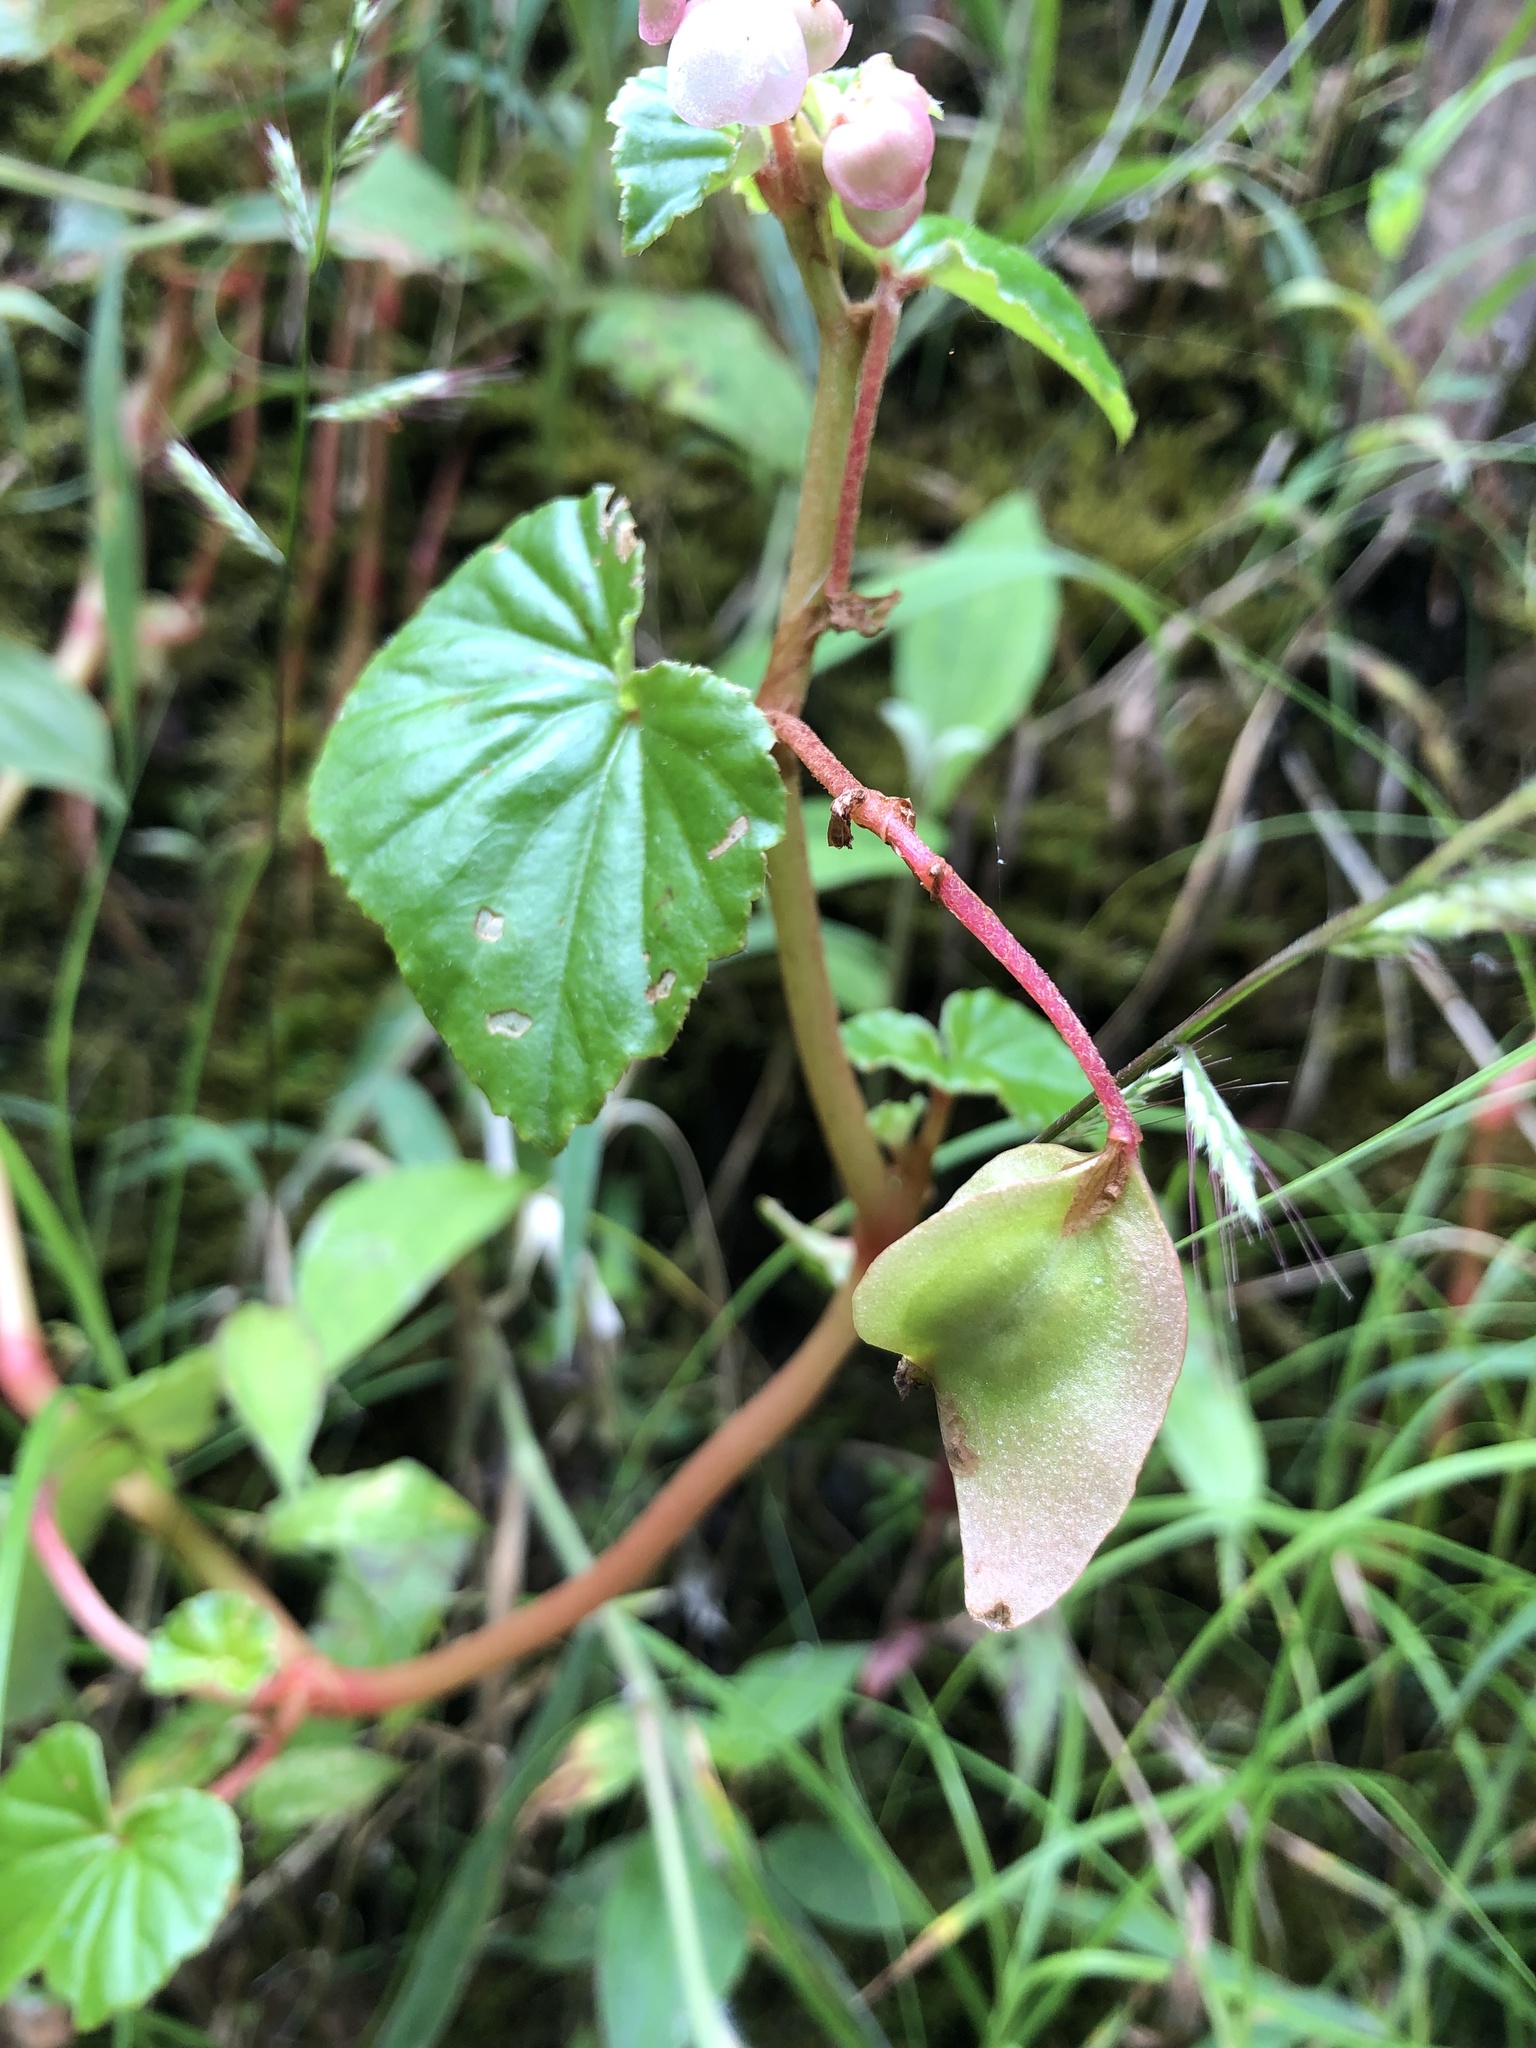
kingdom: Plantae
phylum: Tracheophyta
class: Magnoliopsida
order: Cucurbitales
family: Begoniaceae
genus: Begonia
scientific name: Begonia fischeri
